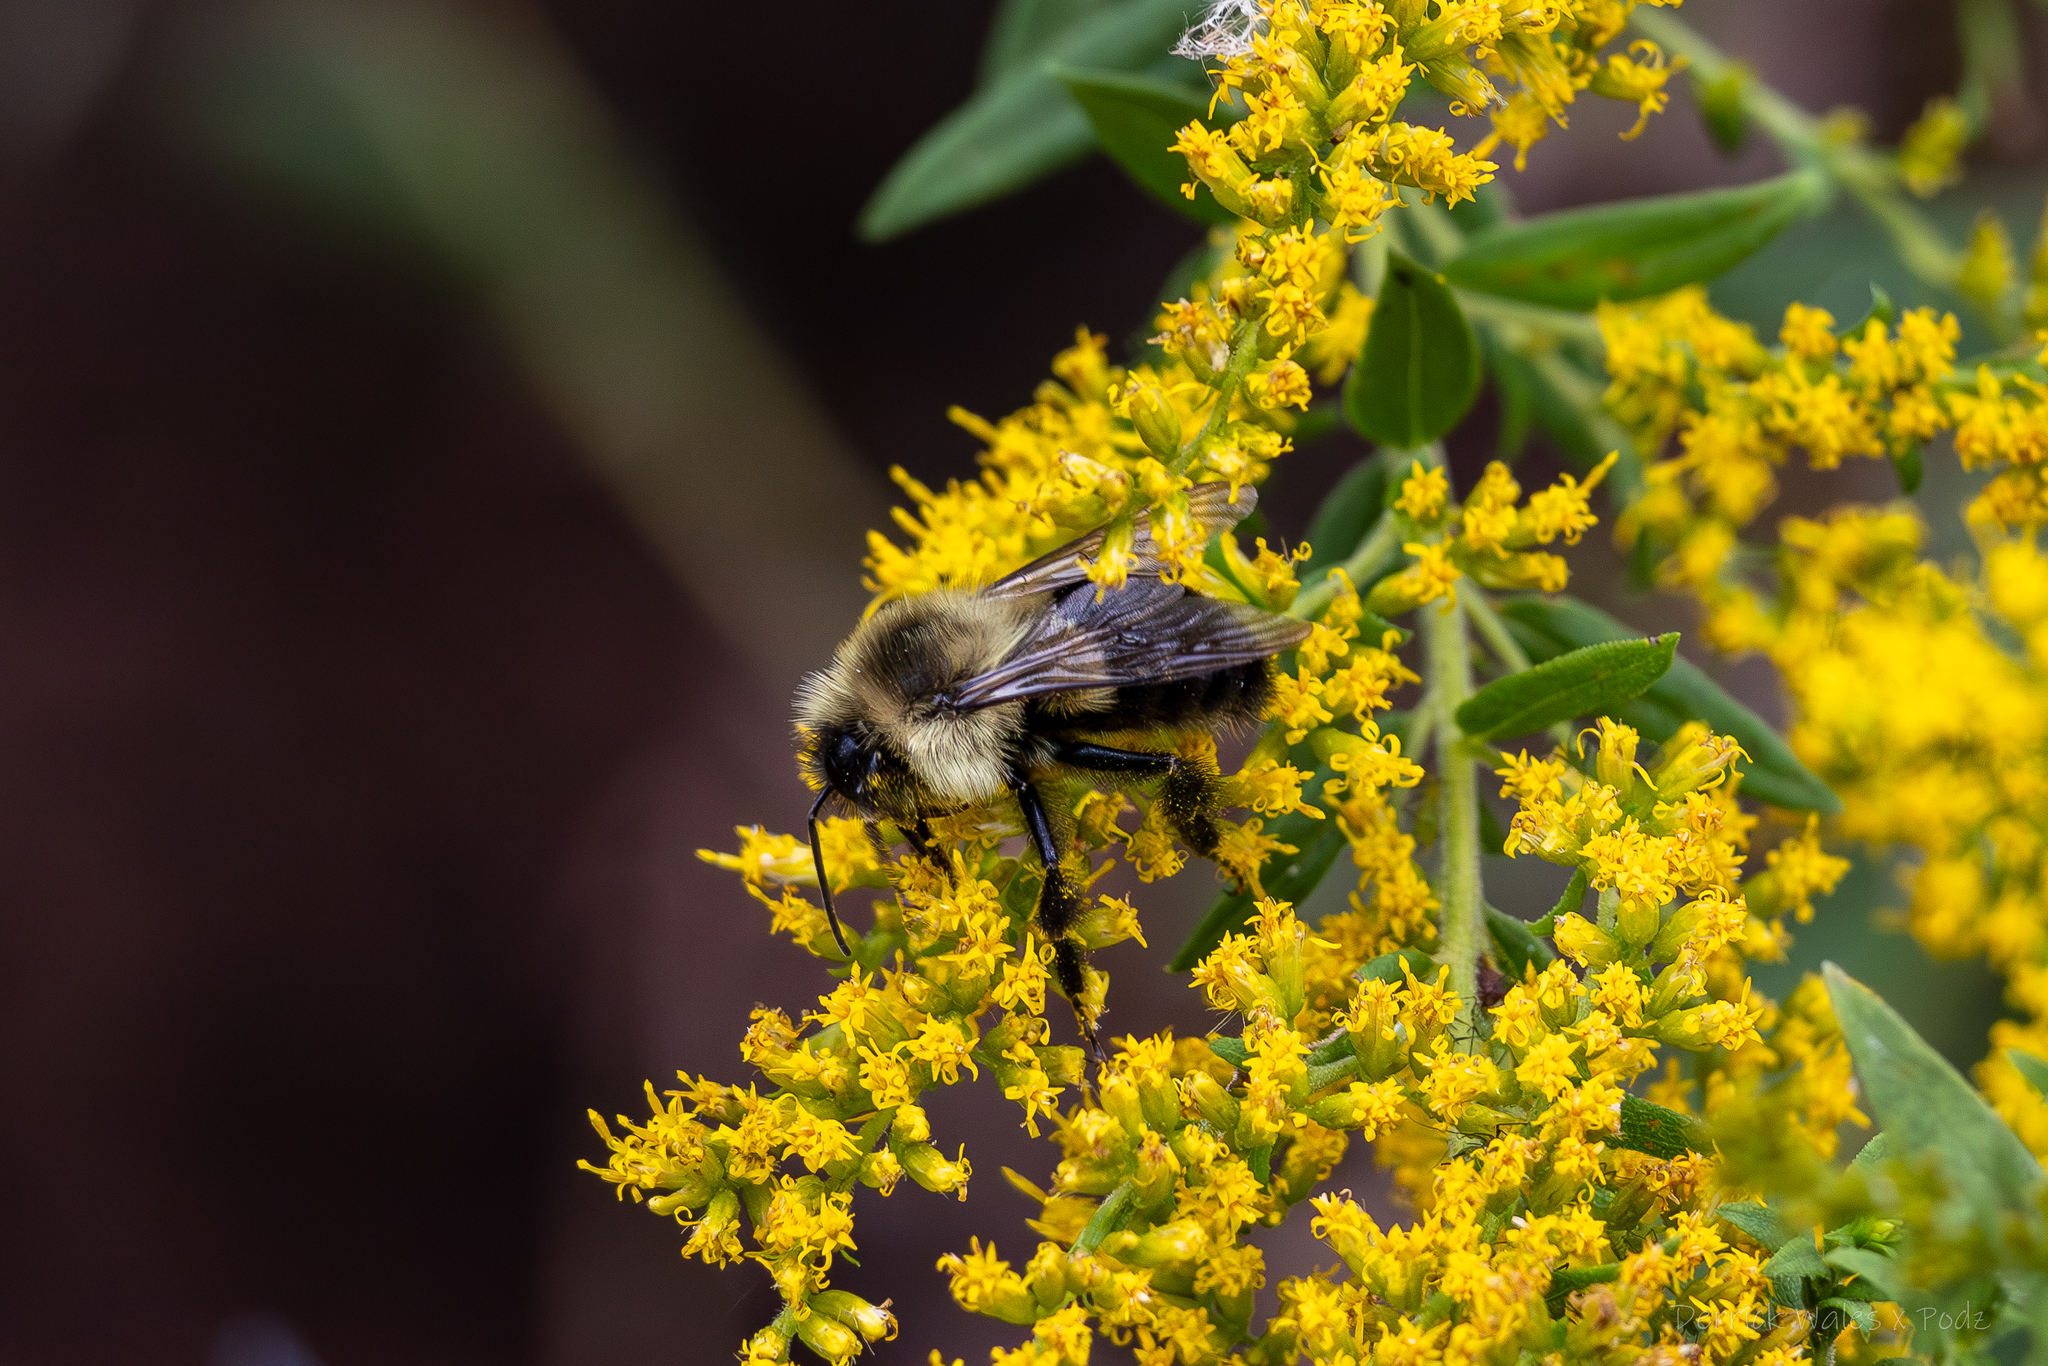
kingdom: Animalia
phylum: Arthropoda
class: Insecta
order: Hymenoptera
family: Apidae
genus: Bombus
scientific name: Bombus impatiens
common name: Common eastern bumble bee
